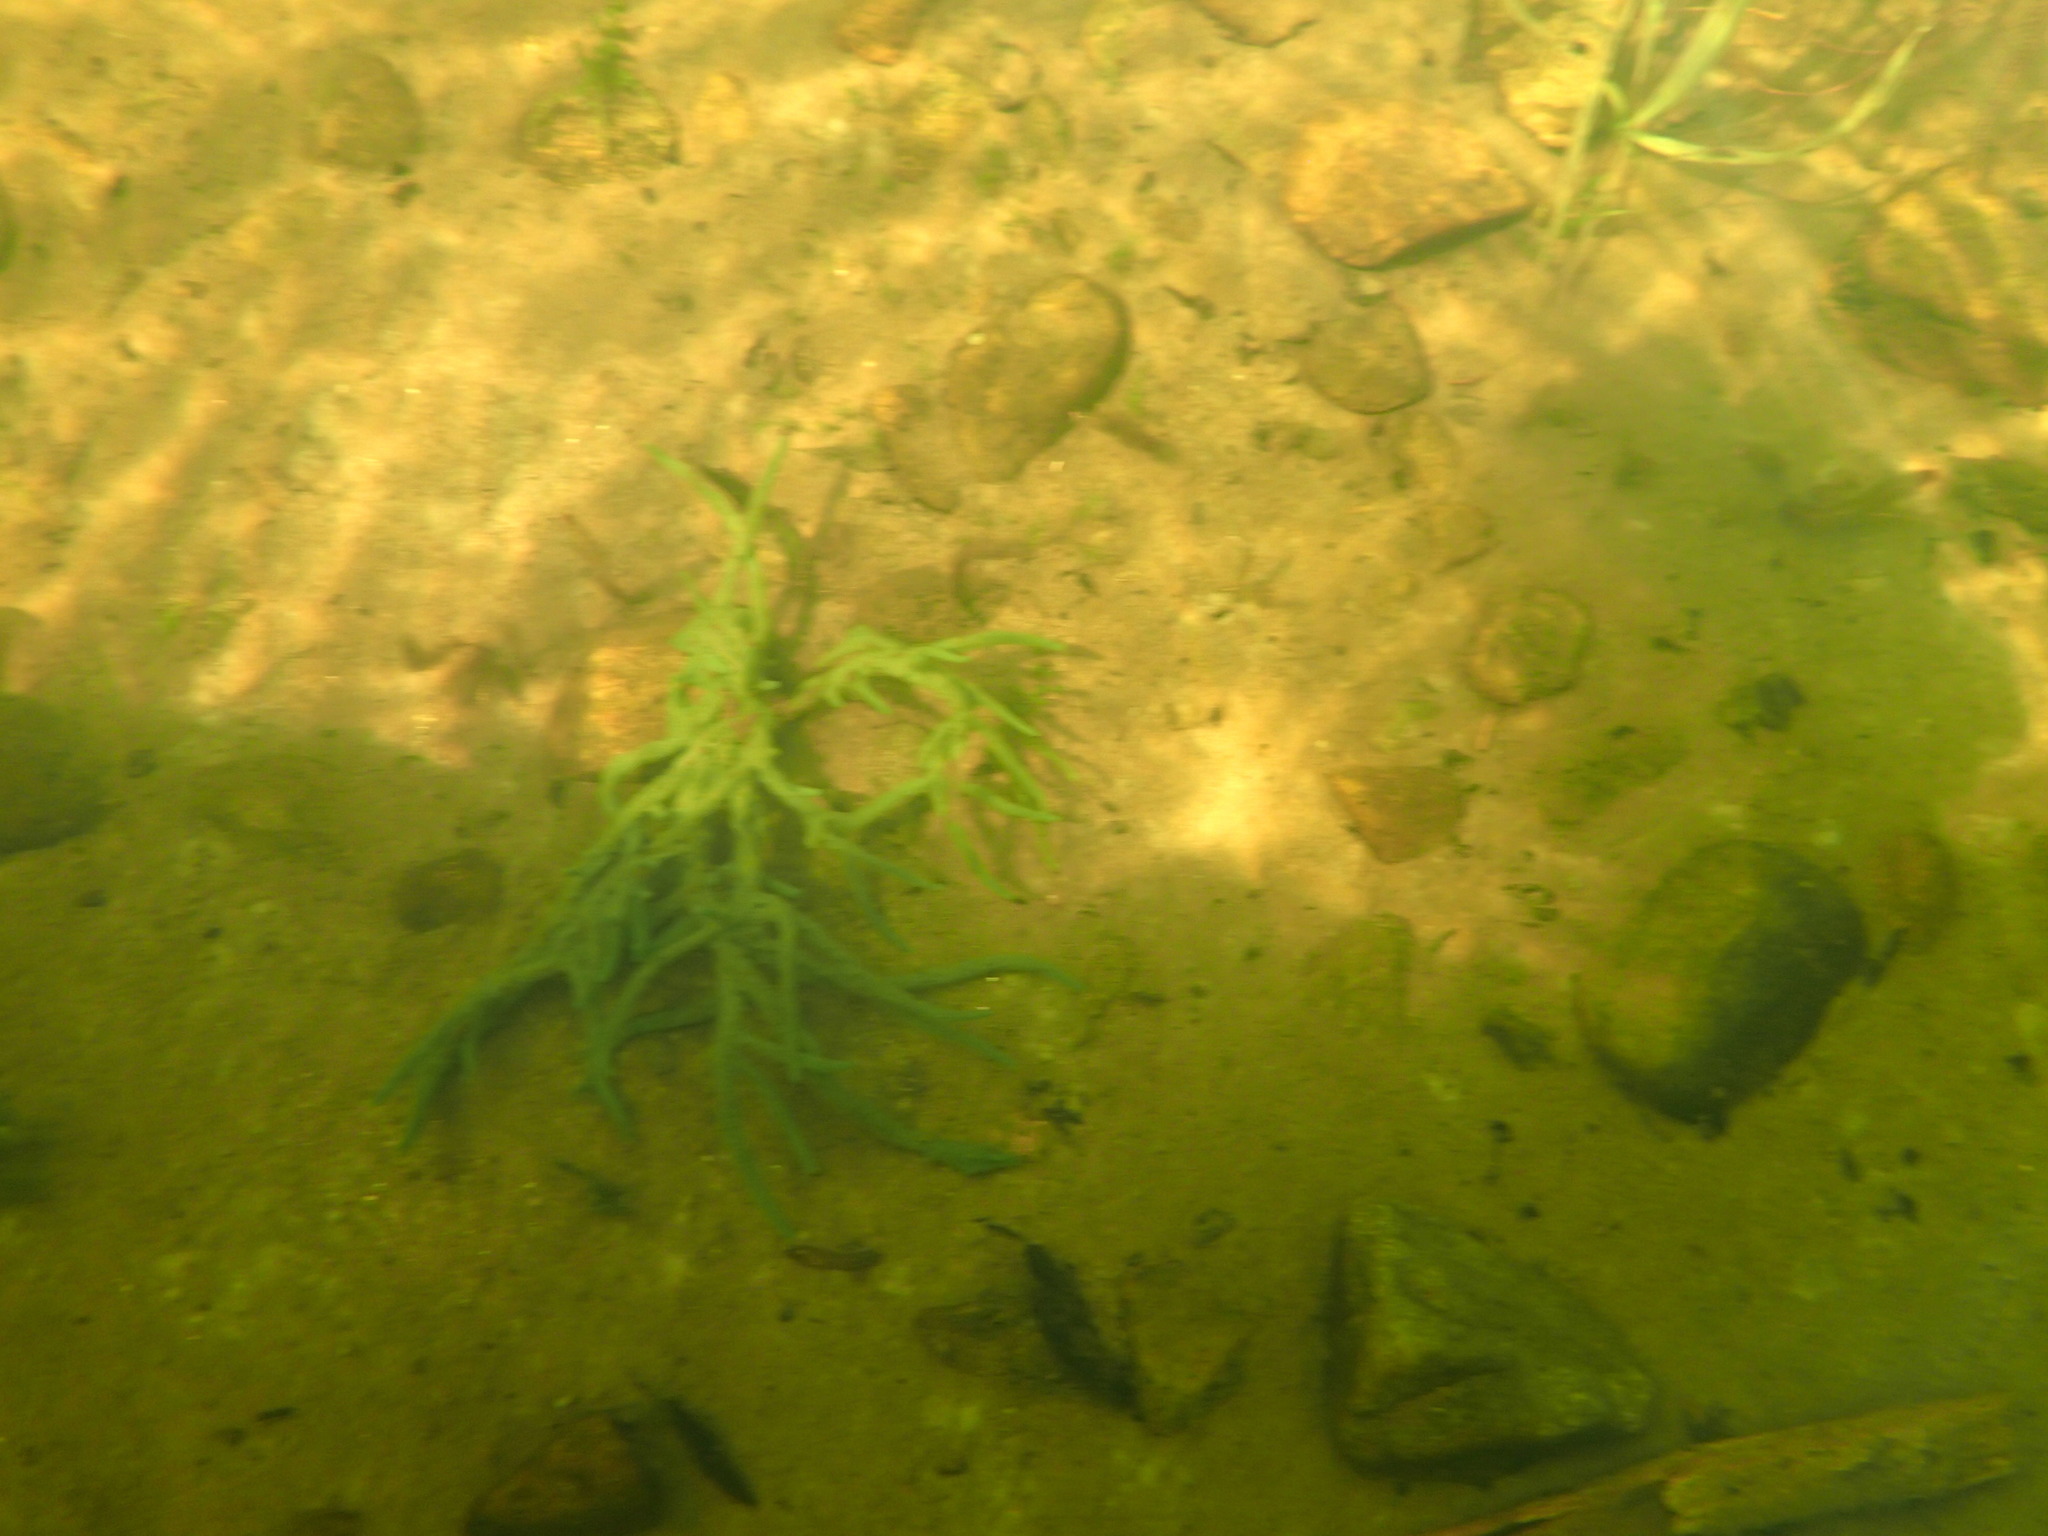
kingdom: Animalia
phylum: Porifera
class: Demospongiae
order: Spongillida
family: Spongillidae
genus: Spongilla
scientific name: Spongilla lacustris
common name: Common freshwater sponge
